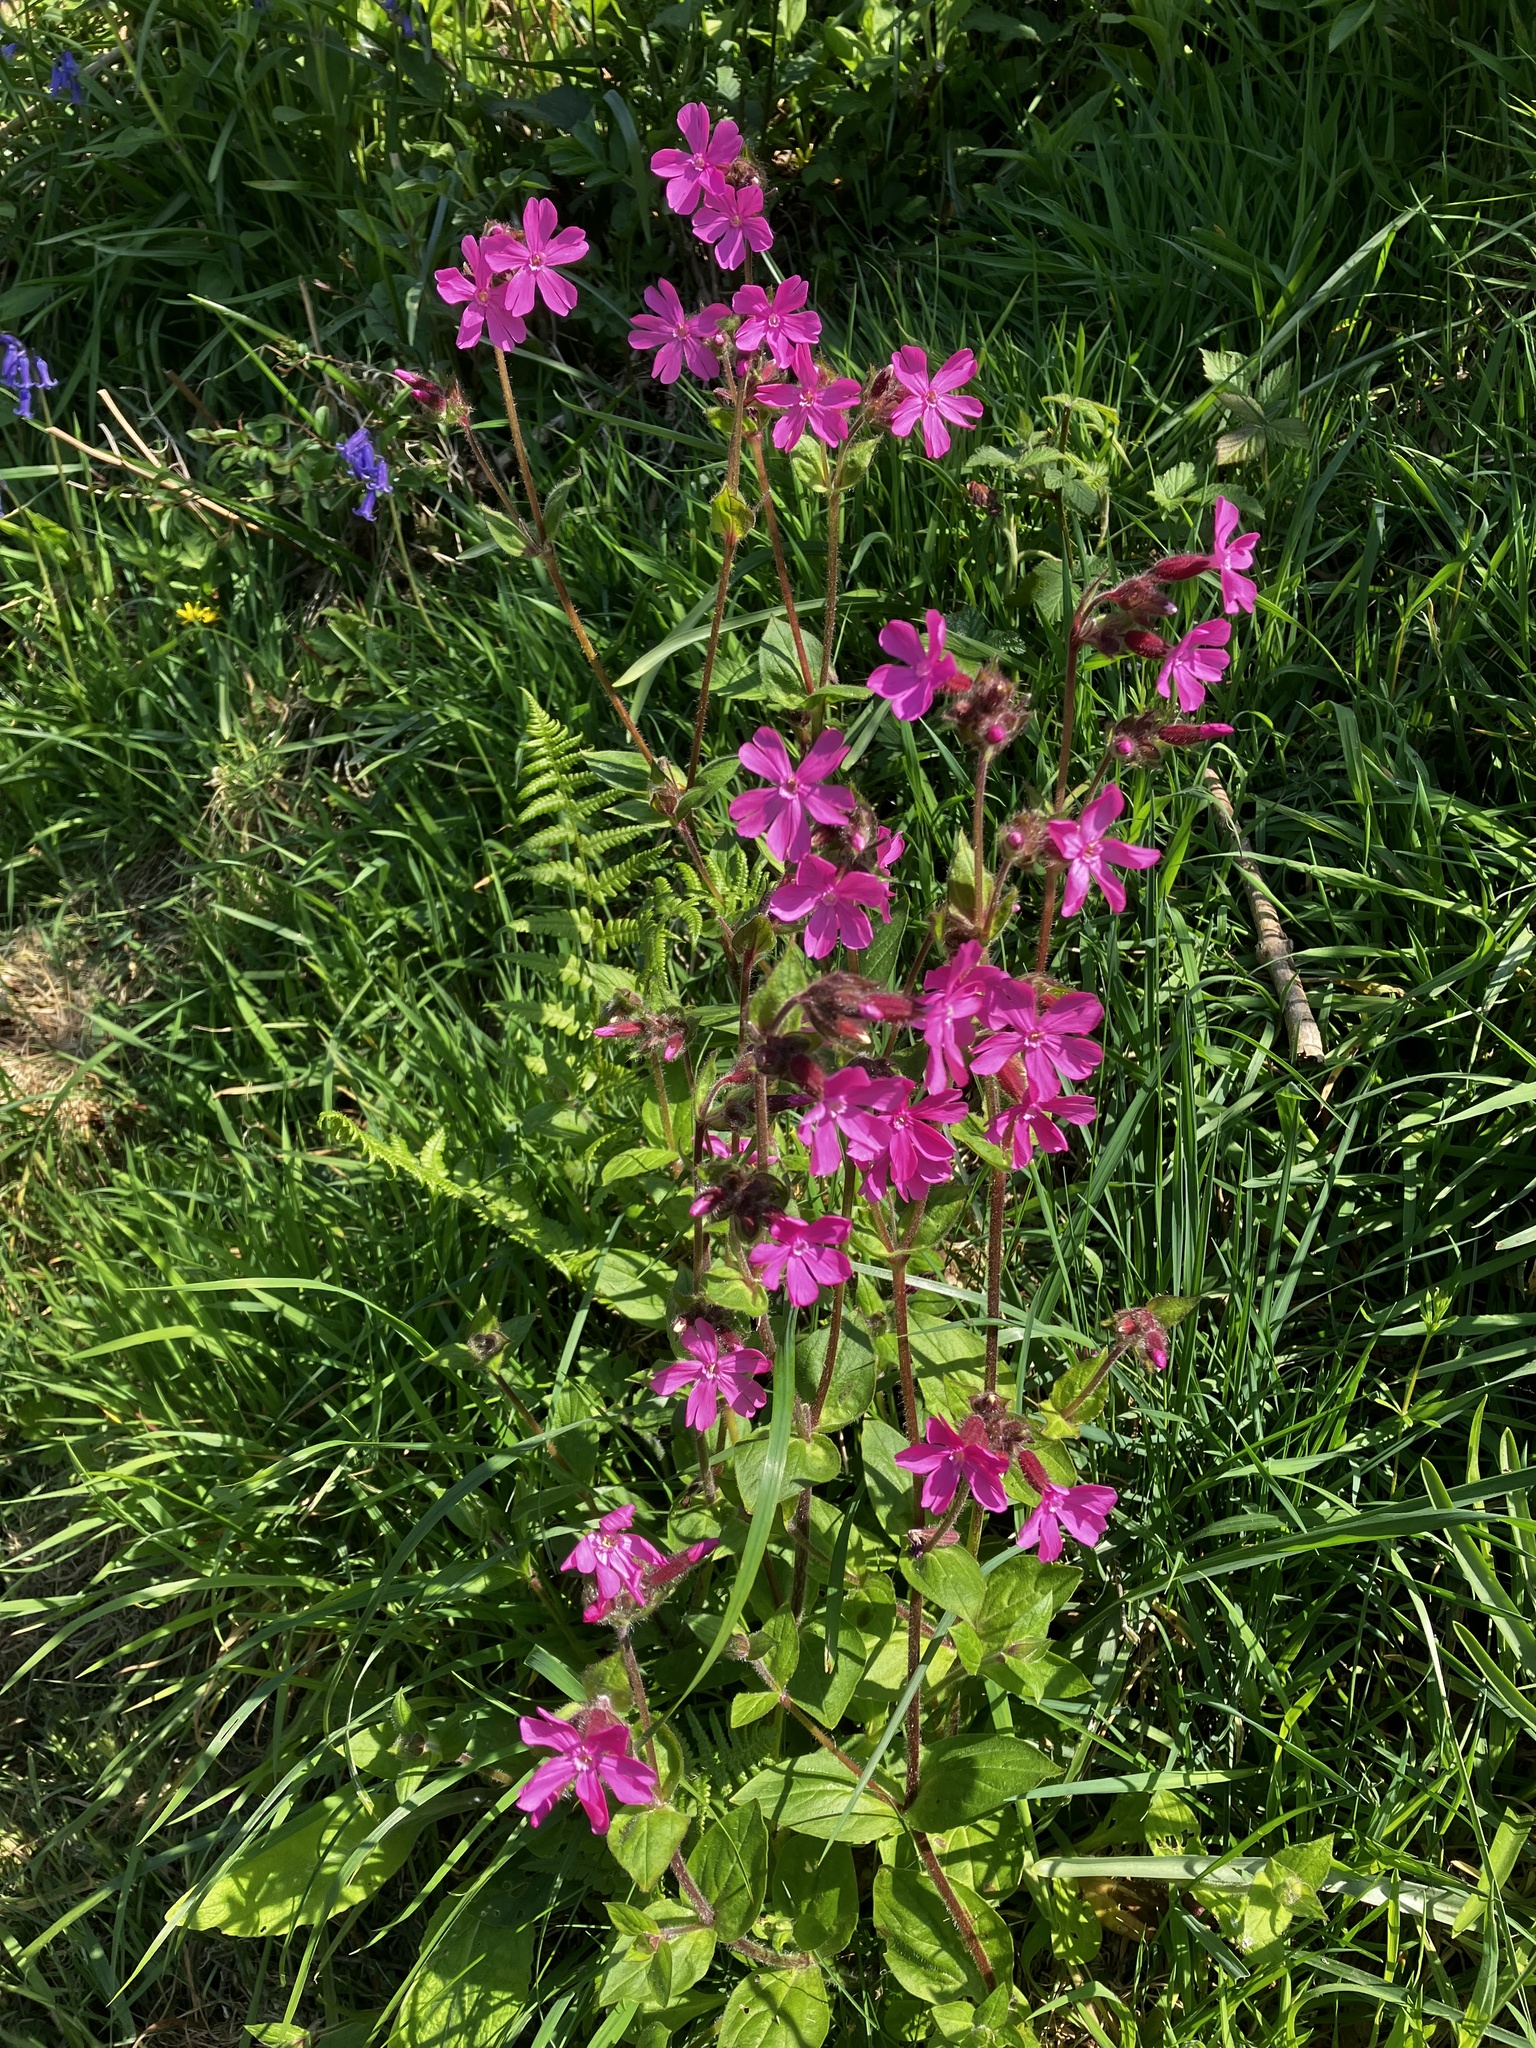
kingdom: Plantae
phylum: Tracheophyta
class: Magnoliopsida
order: Caryophyllales
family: Caryophyllaceae
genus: Silene
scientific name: Silene dioica
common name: Red campion
